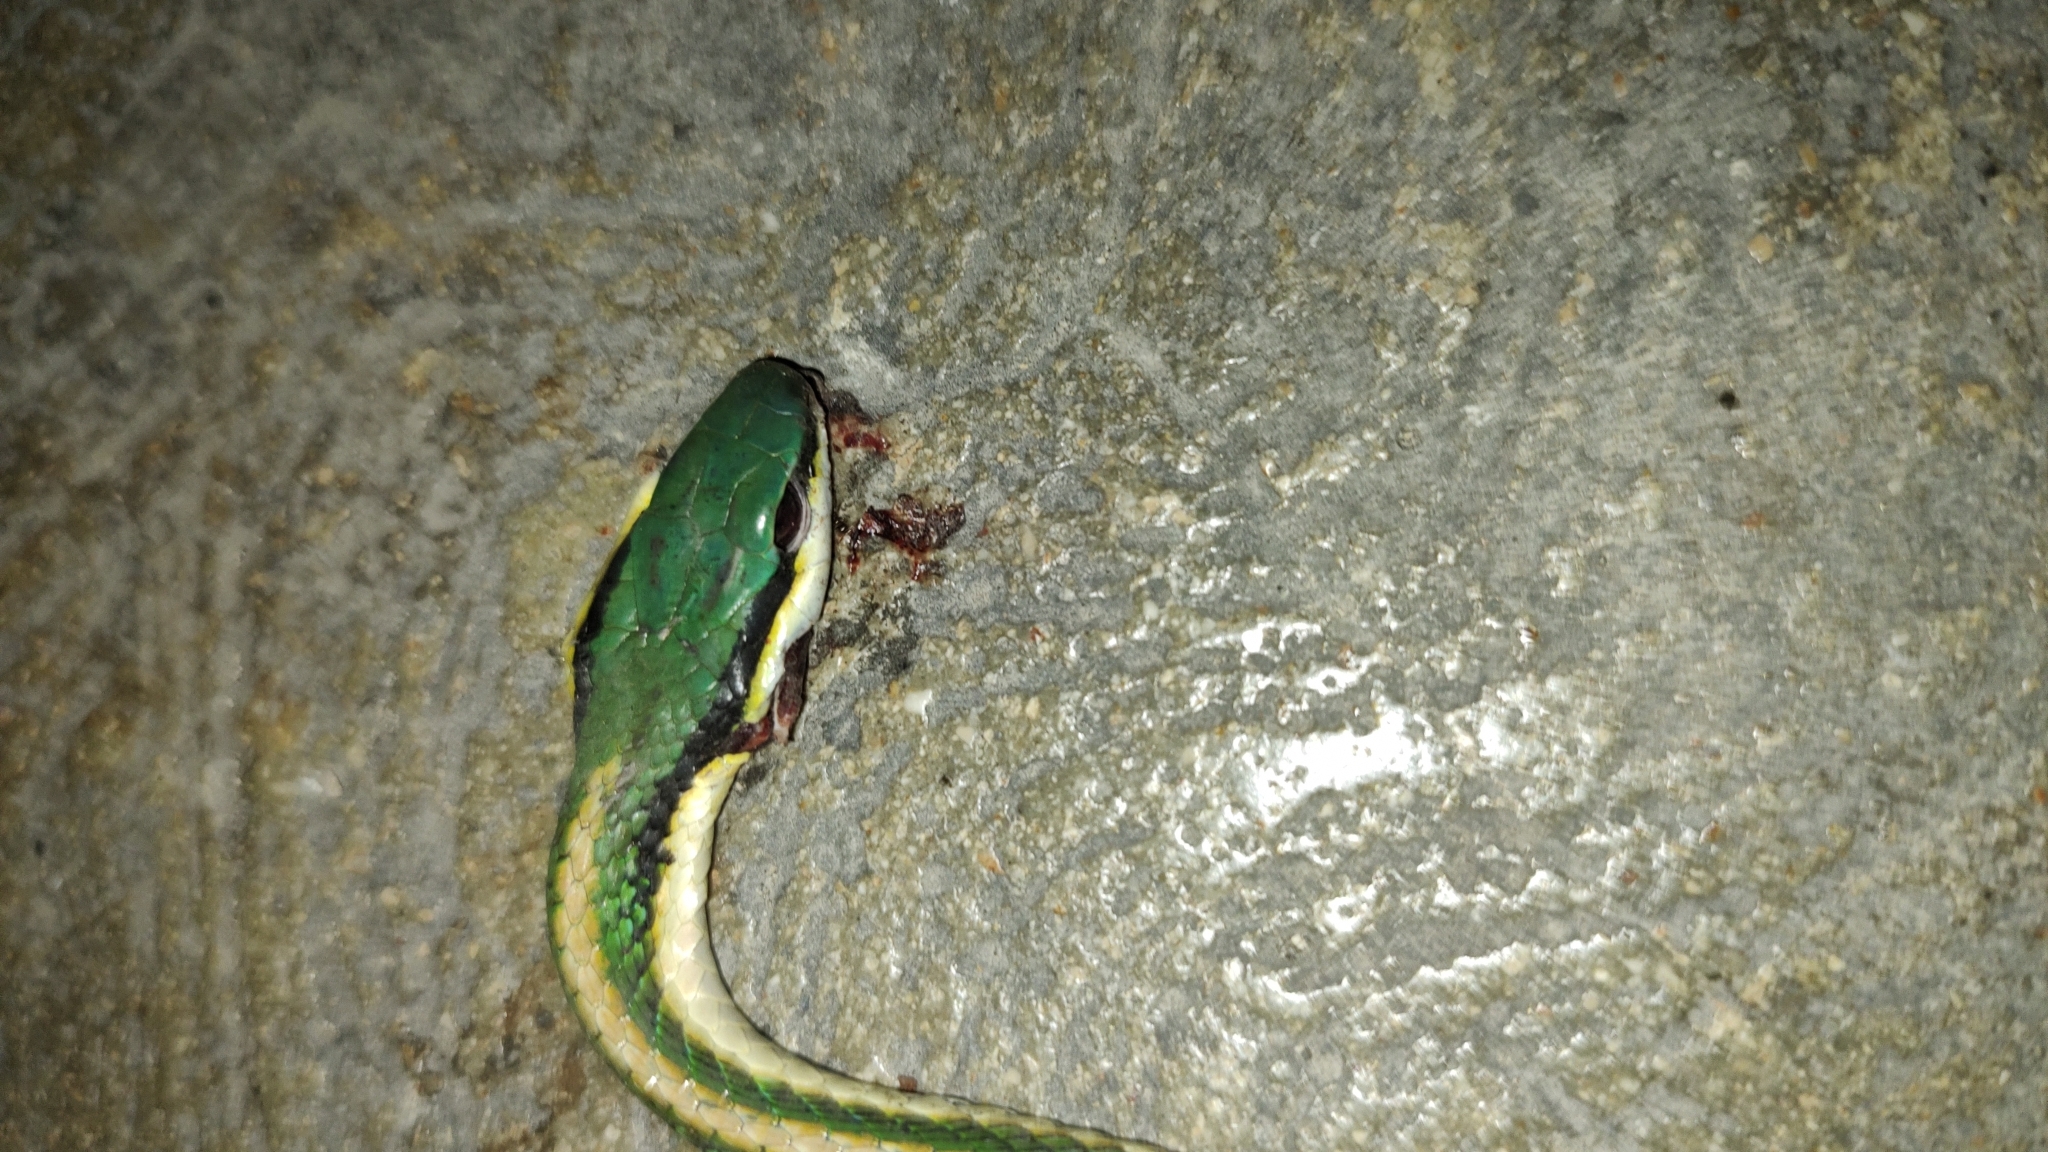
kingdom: Animalia
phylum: Chordata
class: Squamata
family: Colubridae
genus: Leptophis
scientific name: Leptophis mexicanus
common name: Mexican parrot snake
